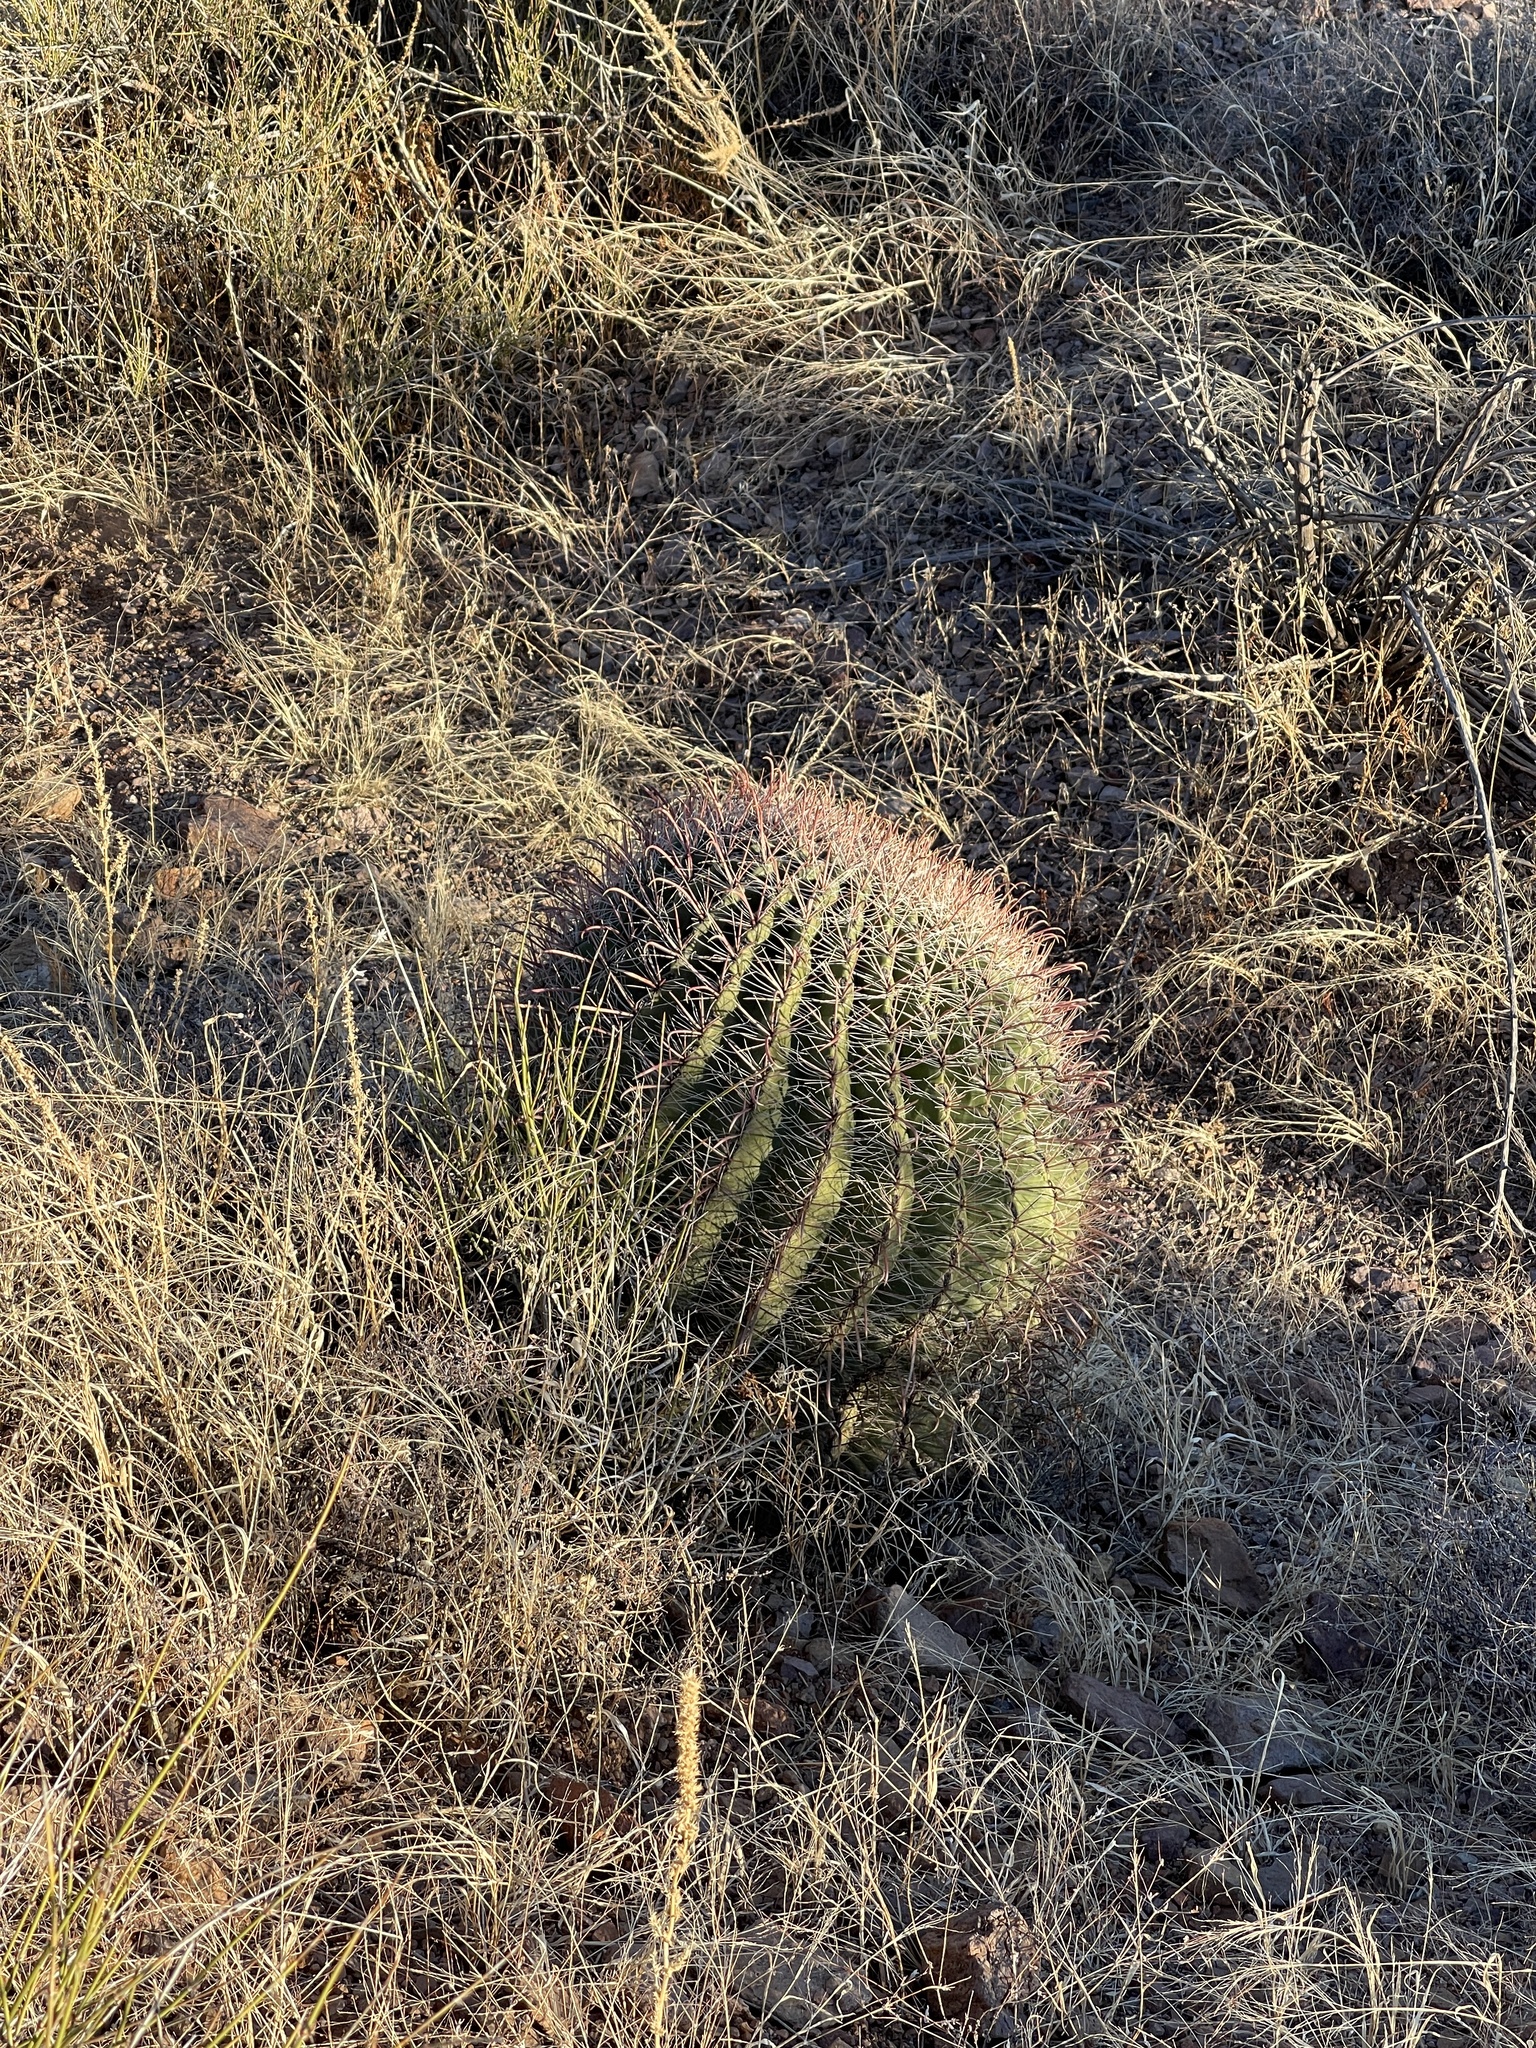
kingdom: Plantae
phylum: Tracheophyta
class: Magnoliopsida
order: Caryophyllales
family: Cactaceae
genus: Ferocactus
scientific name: Ferocactus wislizeni
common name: Candy barrel cactus
